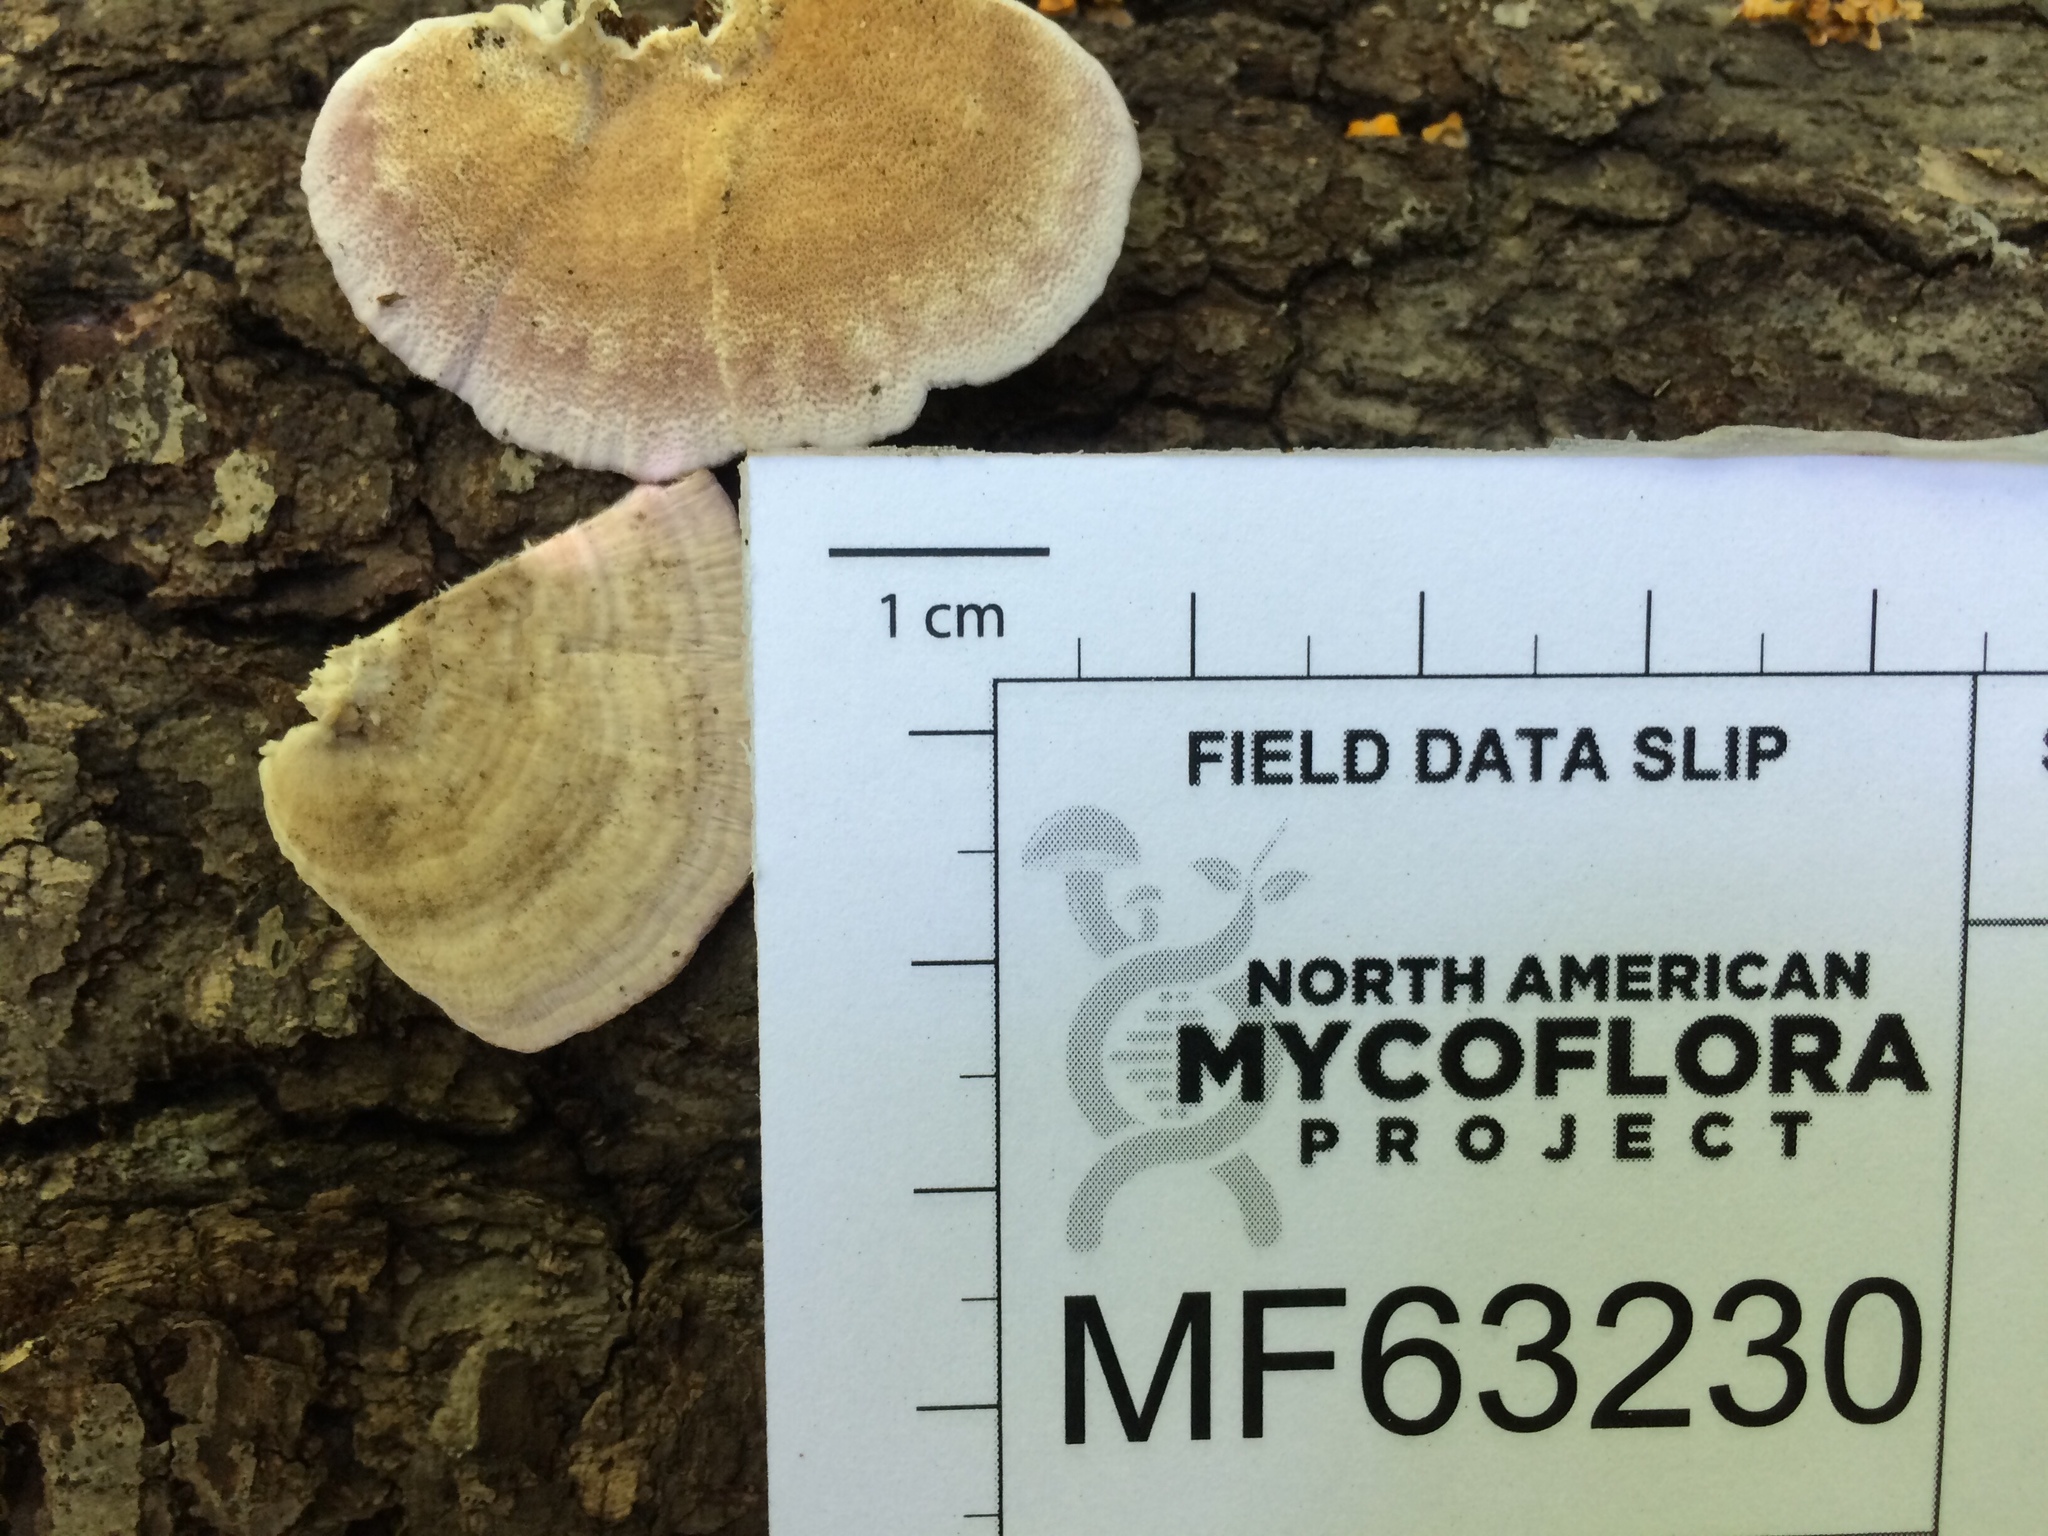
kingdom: Fungi
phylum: Basidiomycota
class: Agaricomycetes
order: Hymenochaetales
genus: Trichaptum
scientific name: Trichaptum biforme
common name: Violet-toothed polypore
